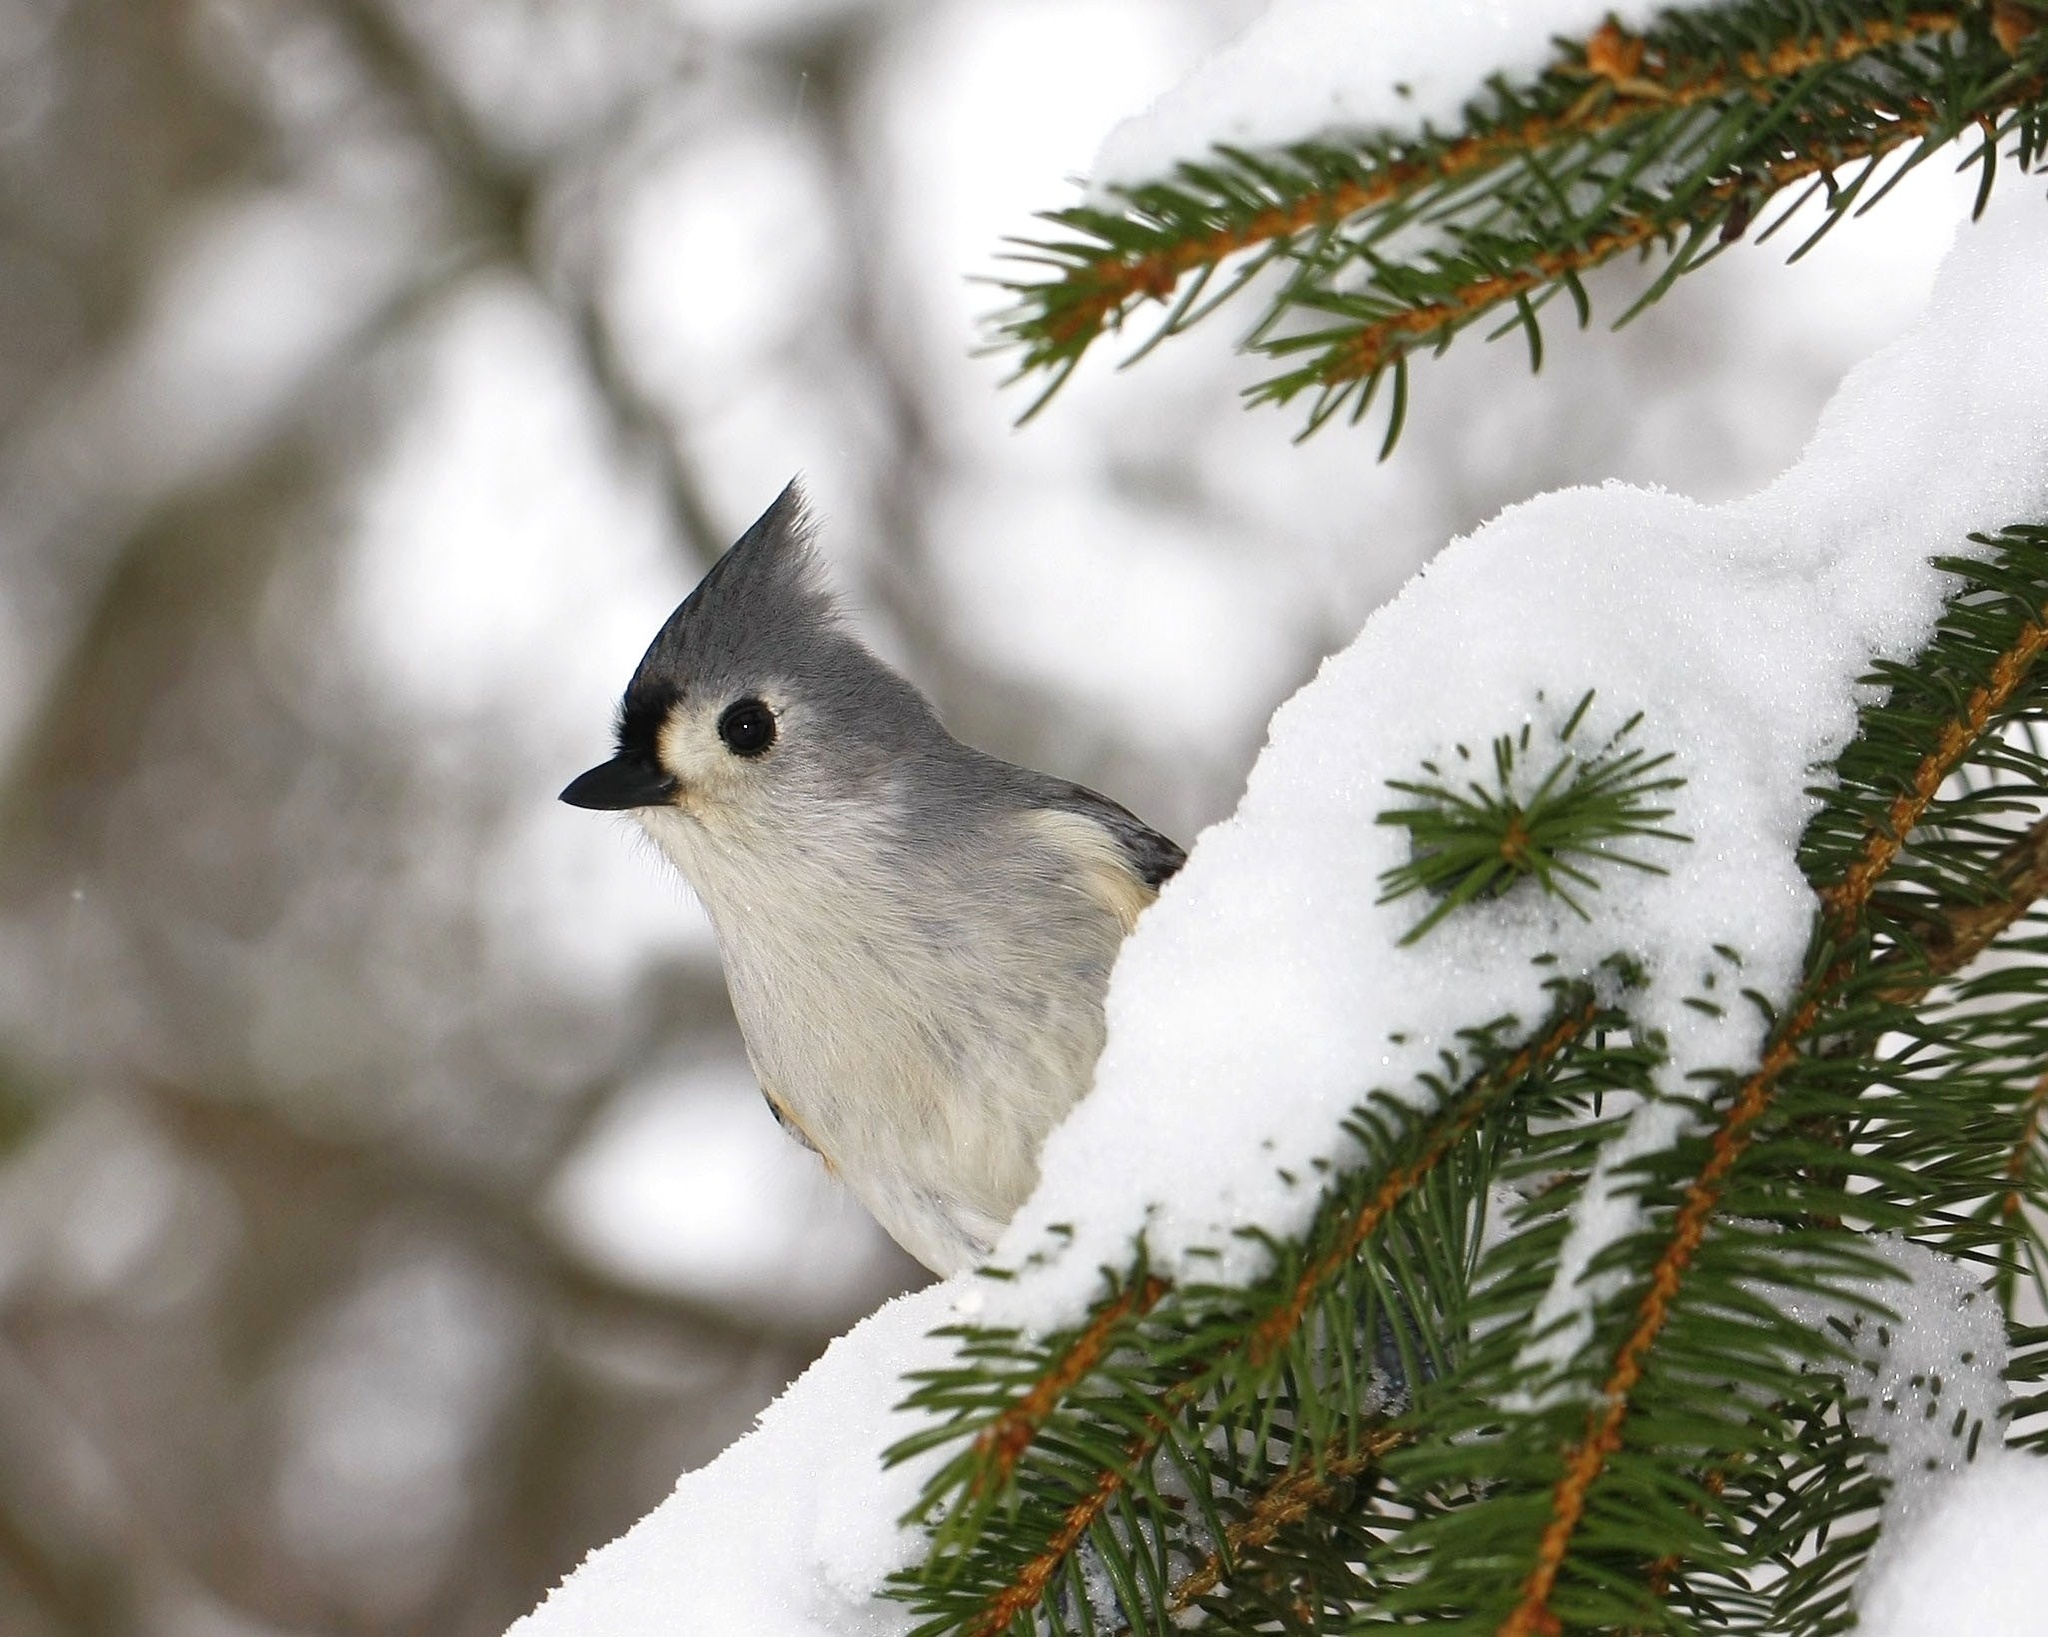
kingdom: Animalia
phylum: Chordata
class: Aves
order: Passeriformes
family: Paridae
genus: Baeolophus
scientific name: Baeolophus bicolor
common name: Tufted titmouse
